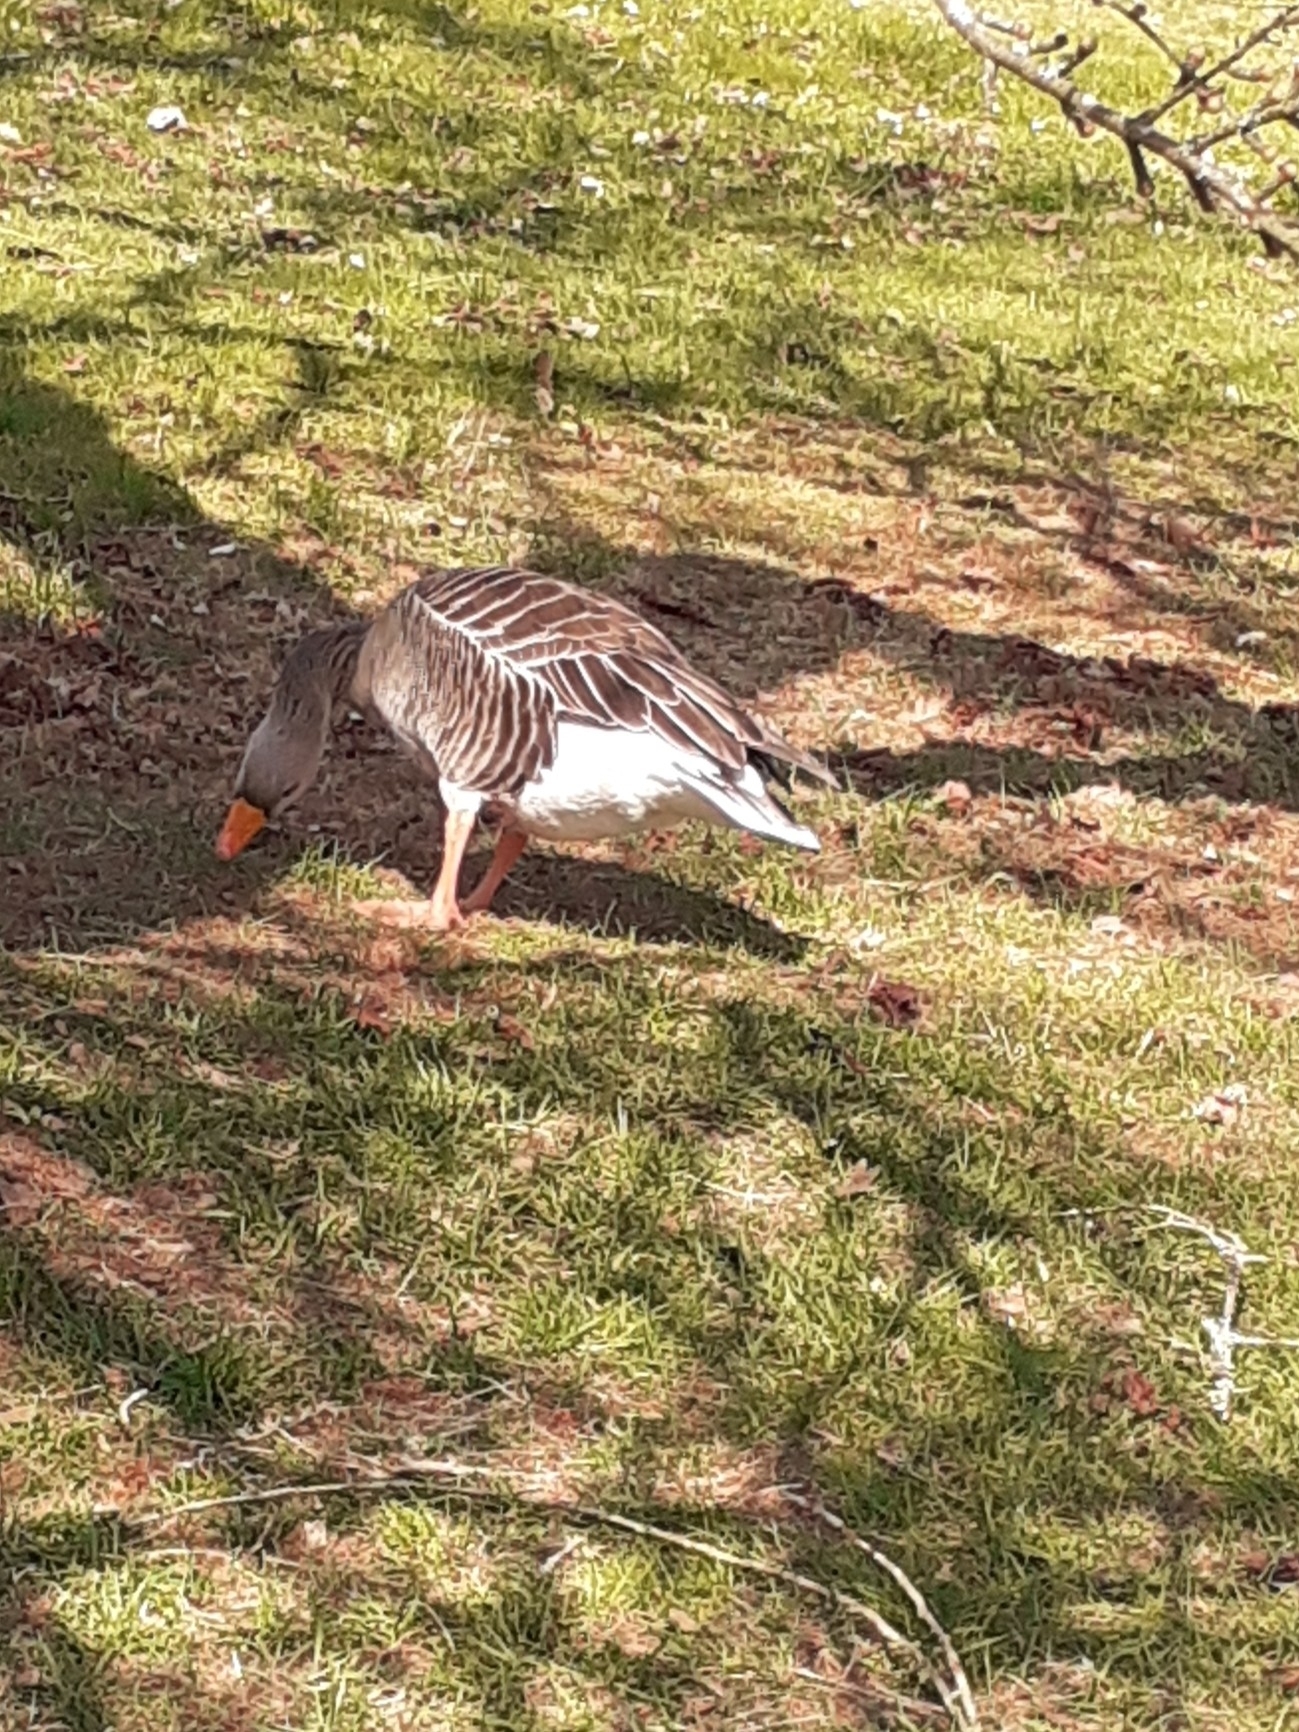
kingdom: Animalia
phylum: Chordata
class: Aves
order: Anseriformes
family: Anatidae
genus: Anser
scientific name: Anser anser
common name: Greylag goose
